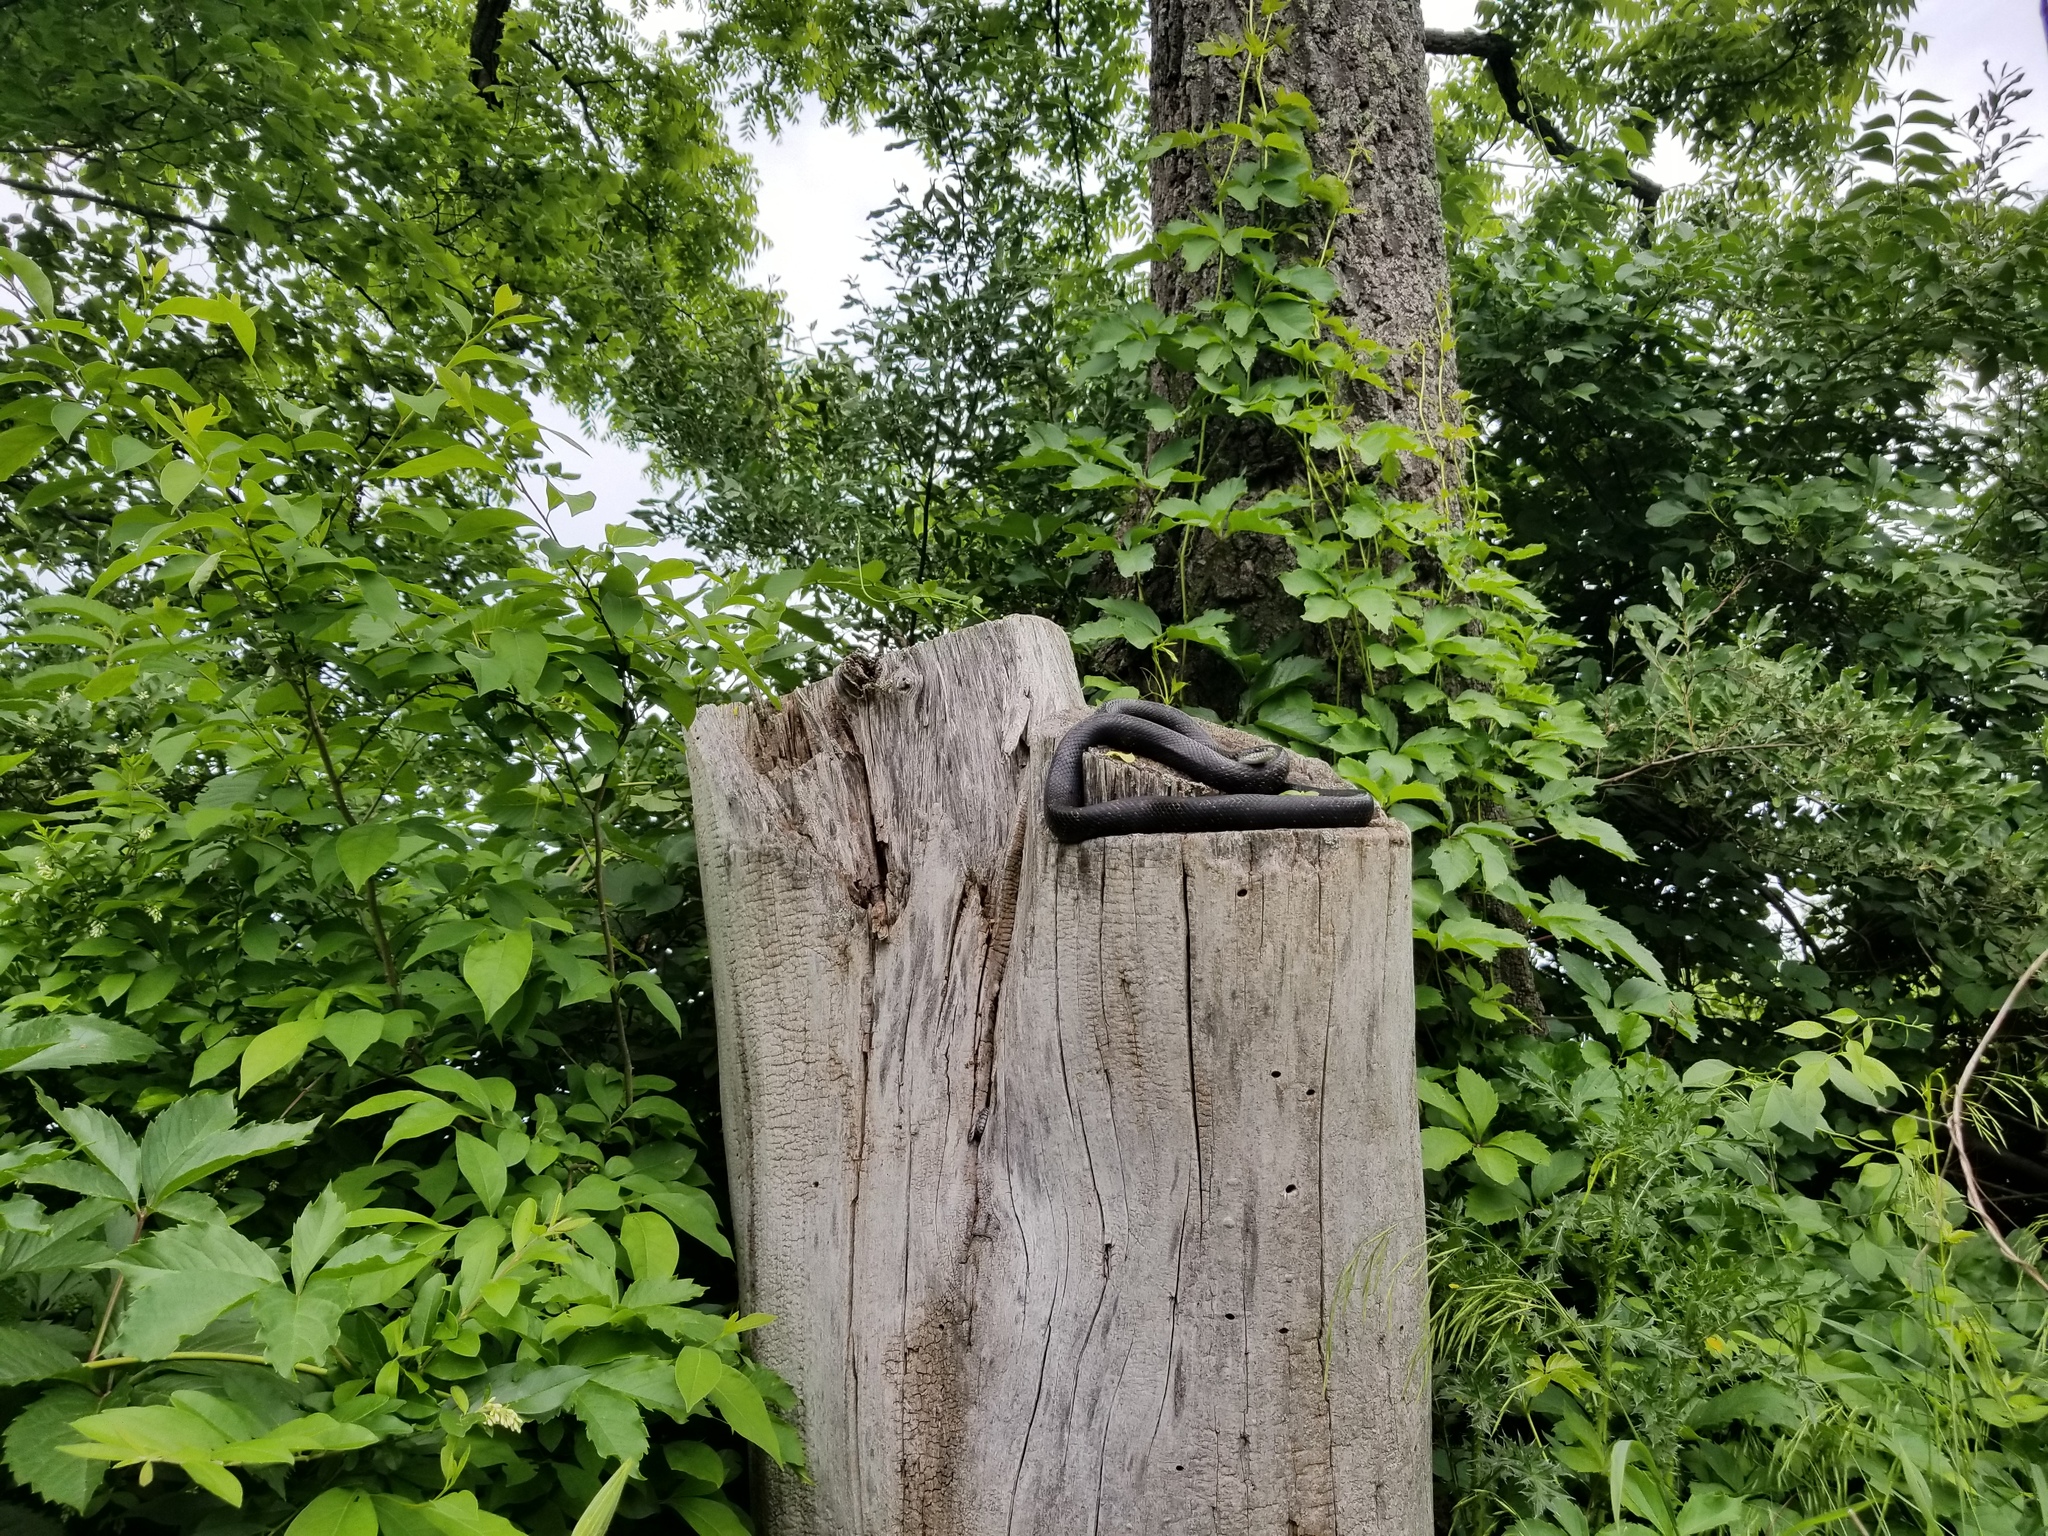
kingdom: Animalia
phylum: Chordata
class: Squamata
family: Colubridae
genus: Pantherophis
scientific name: Pantherophis alleghaniensis
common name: Eastern rat snake
